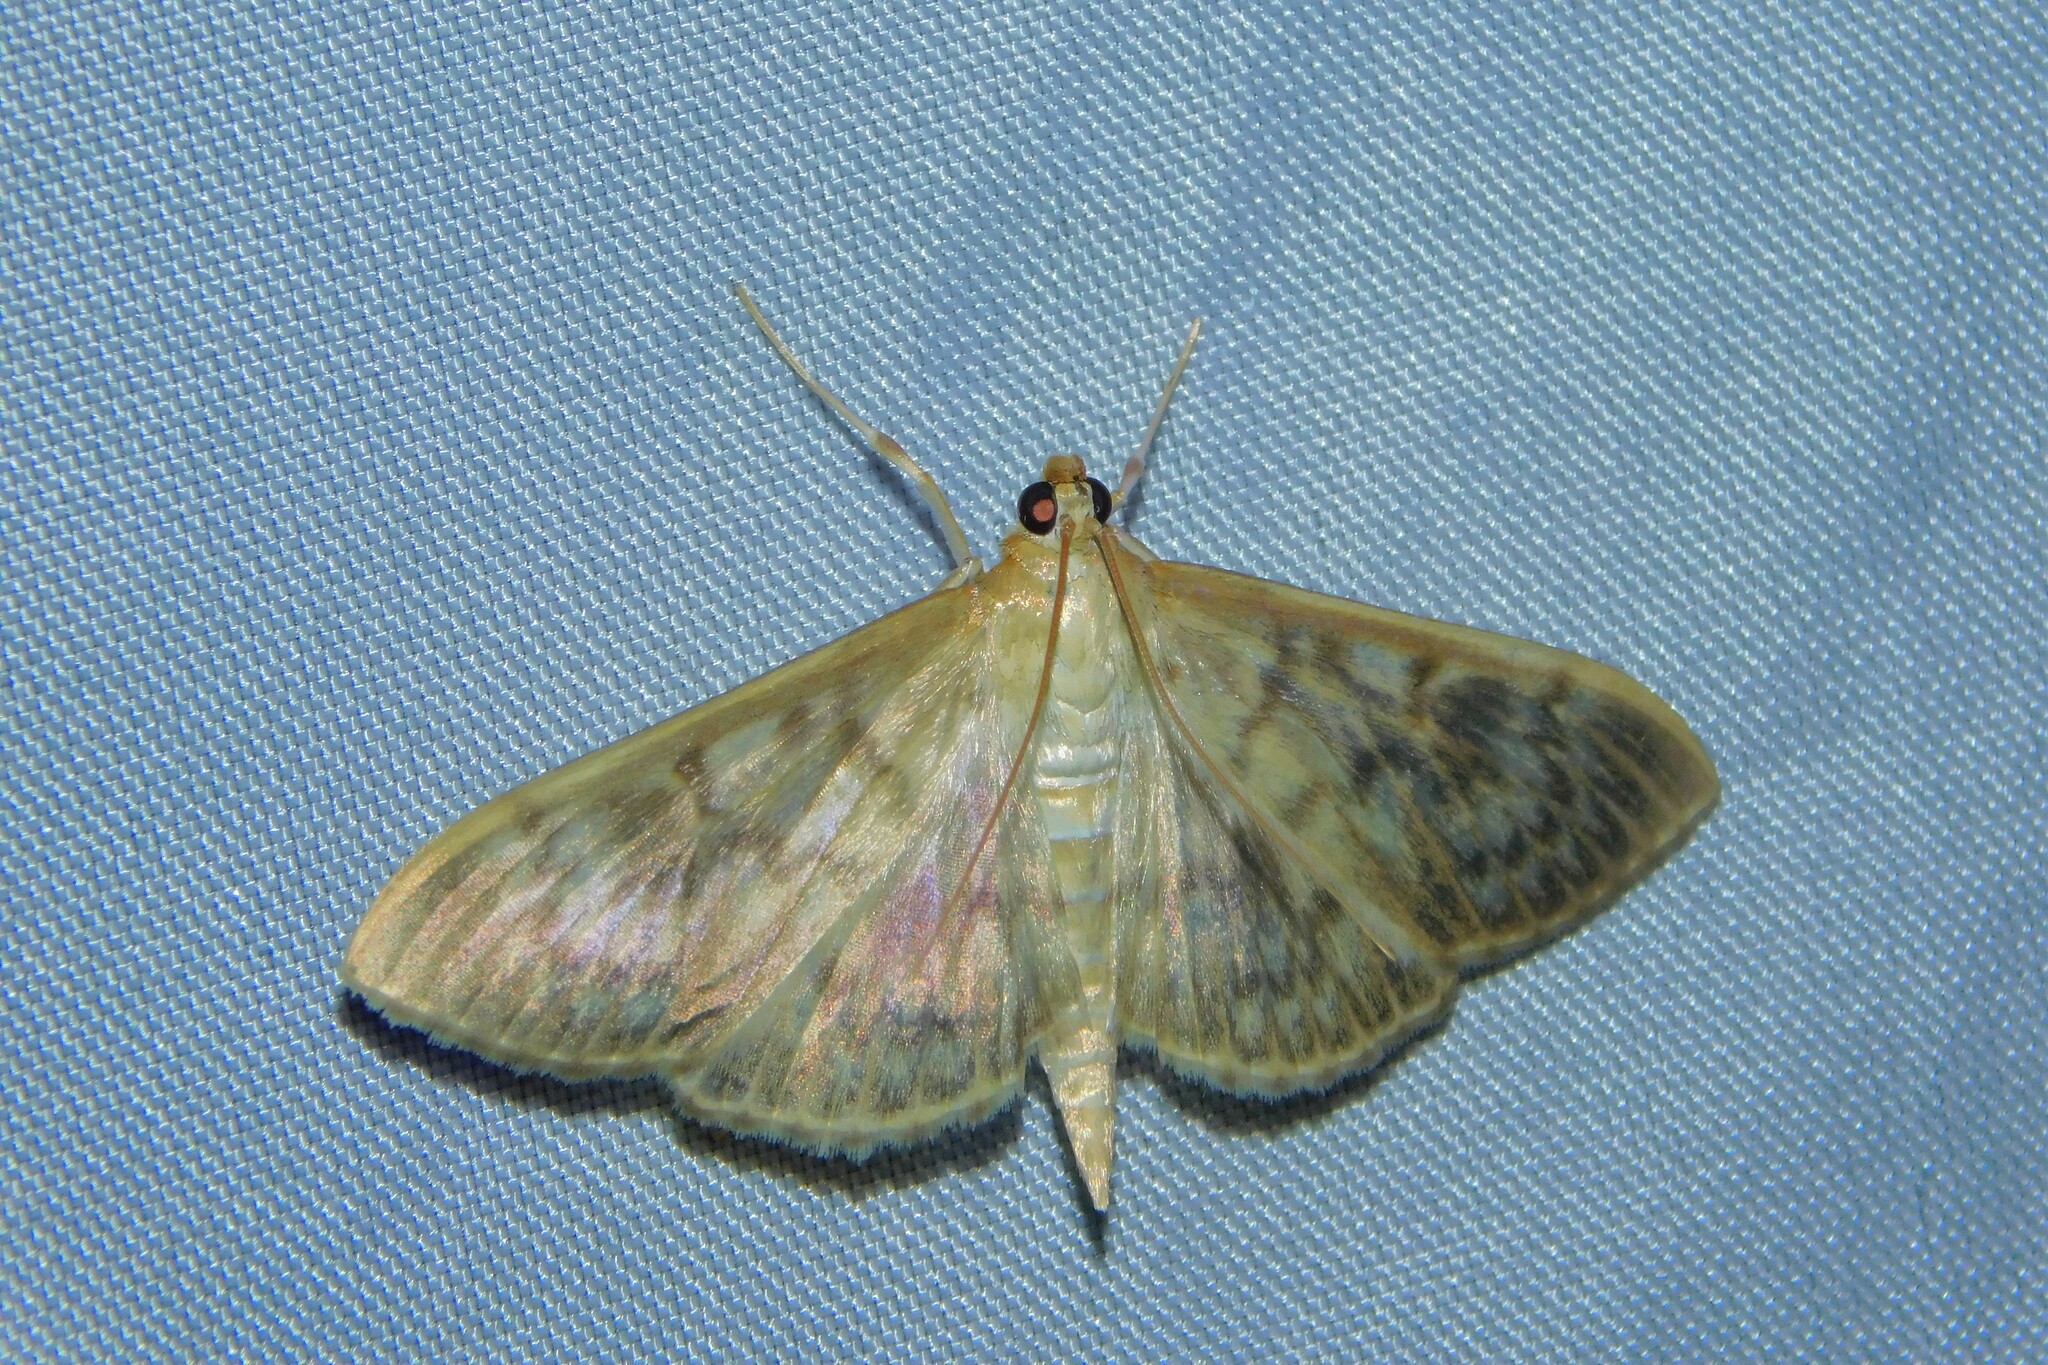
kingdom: Animalia
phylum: Arthropoda
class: Insecta
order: Lepidoptera
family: Crambidae
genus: Patania
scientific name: Patania ruralis
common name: Mother of pearl
